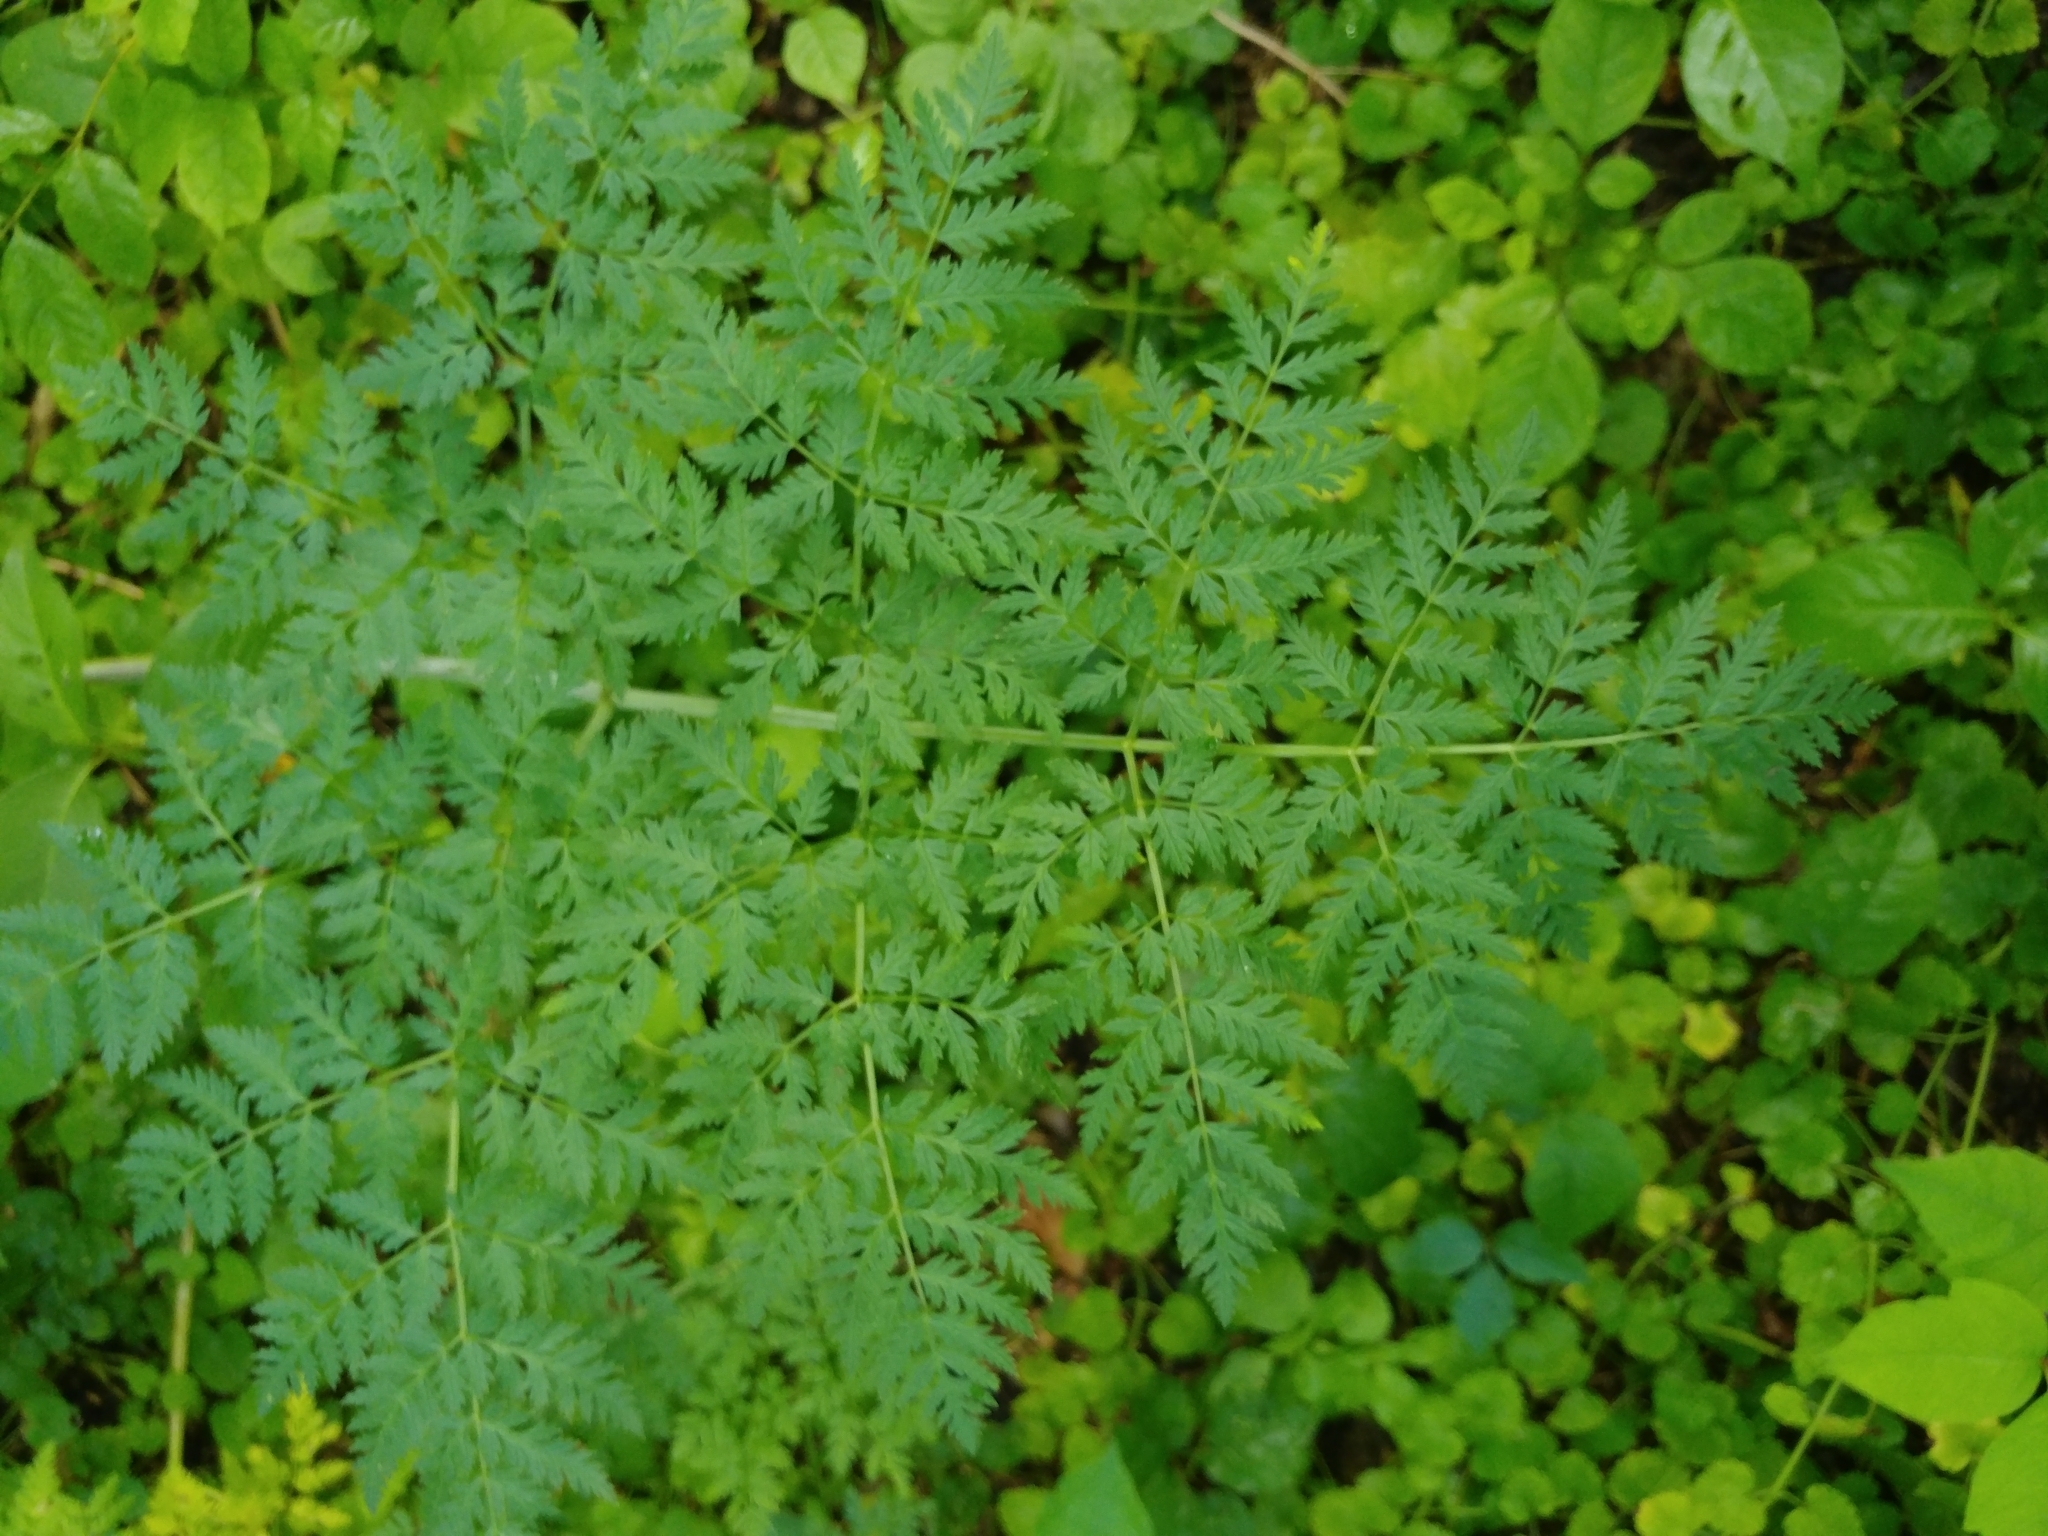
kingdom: Plantae
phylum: Tracheophyta
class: Magnoliopsida
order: Apiales
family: Apiaceae
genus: Conium
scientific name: Conium maculatum
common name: Hemlock
